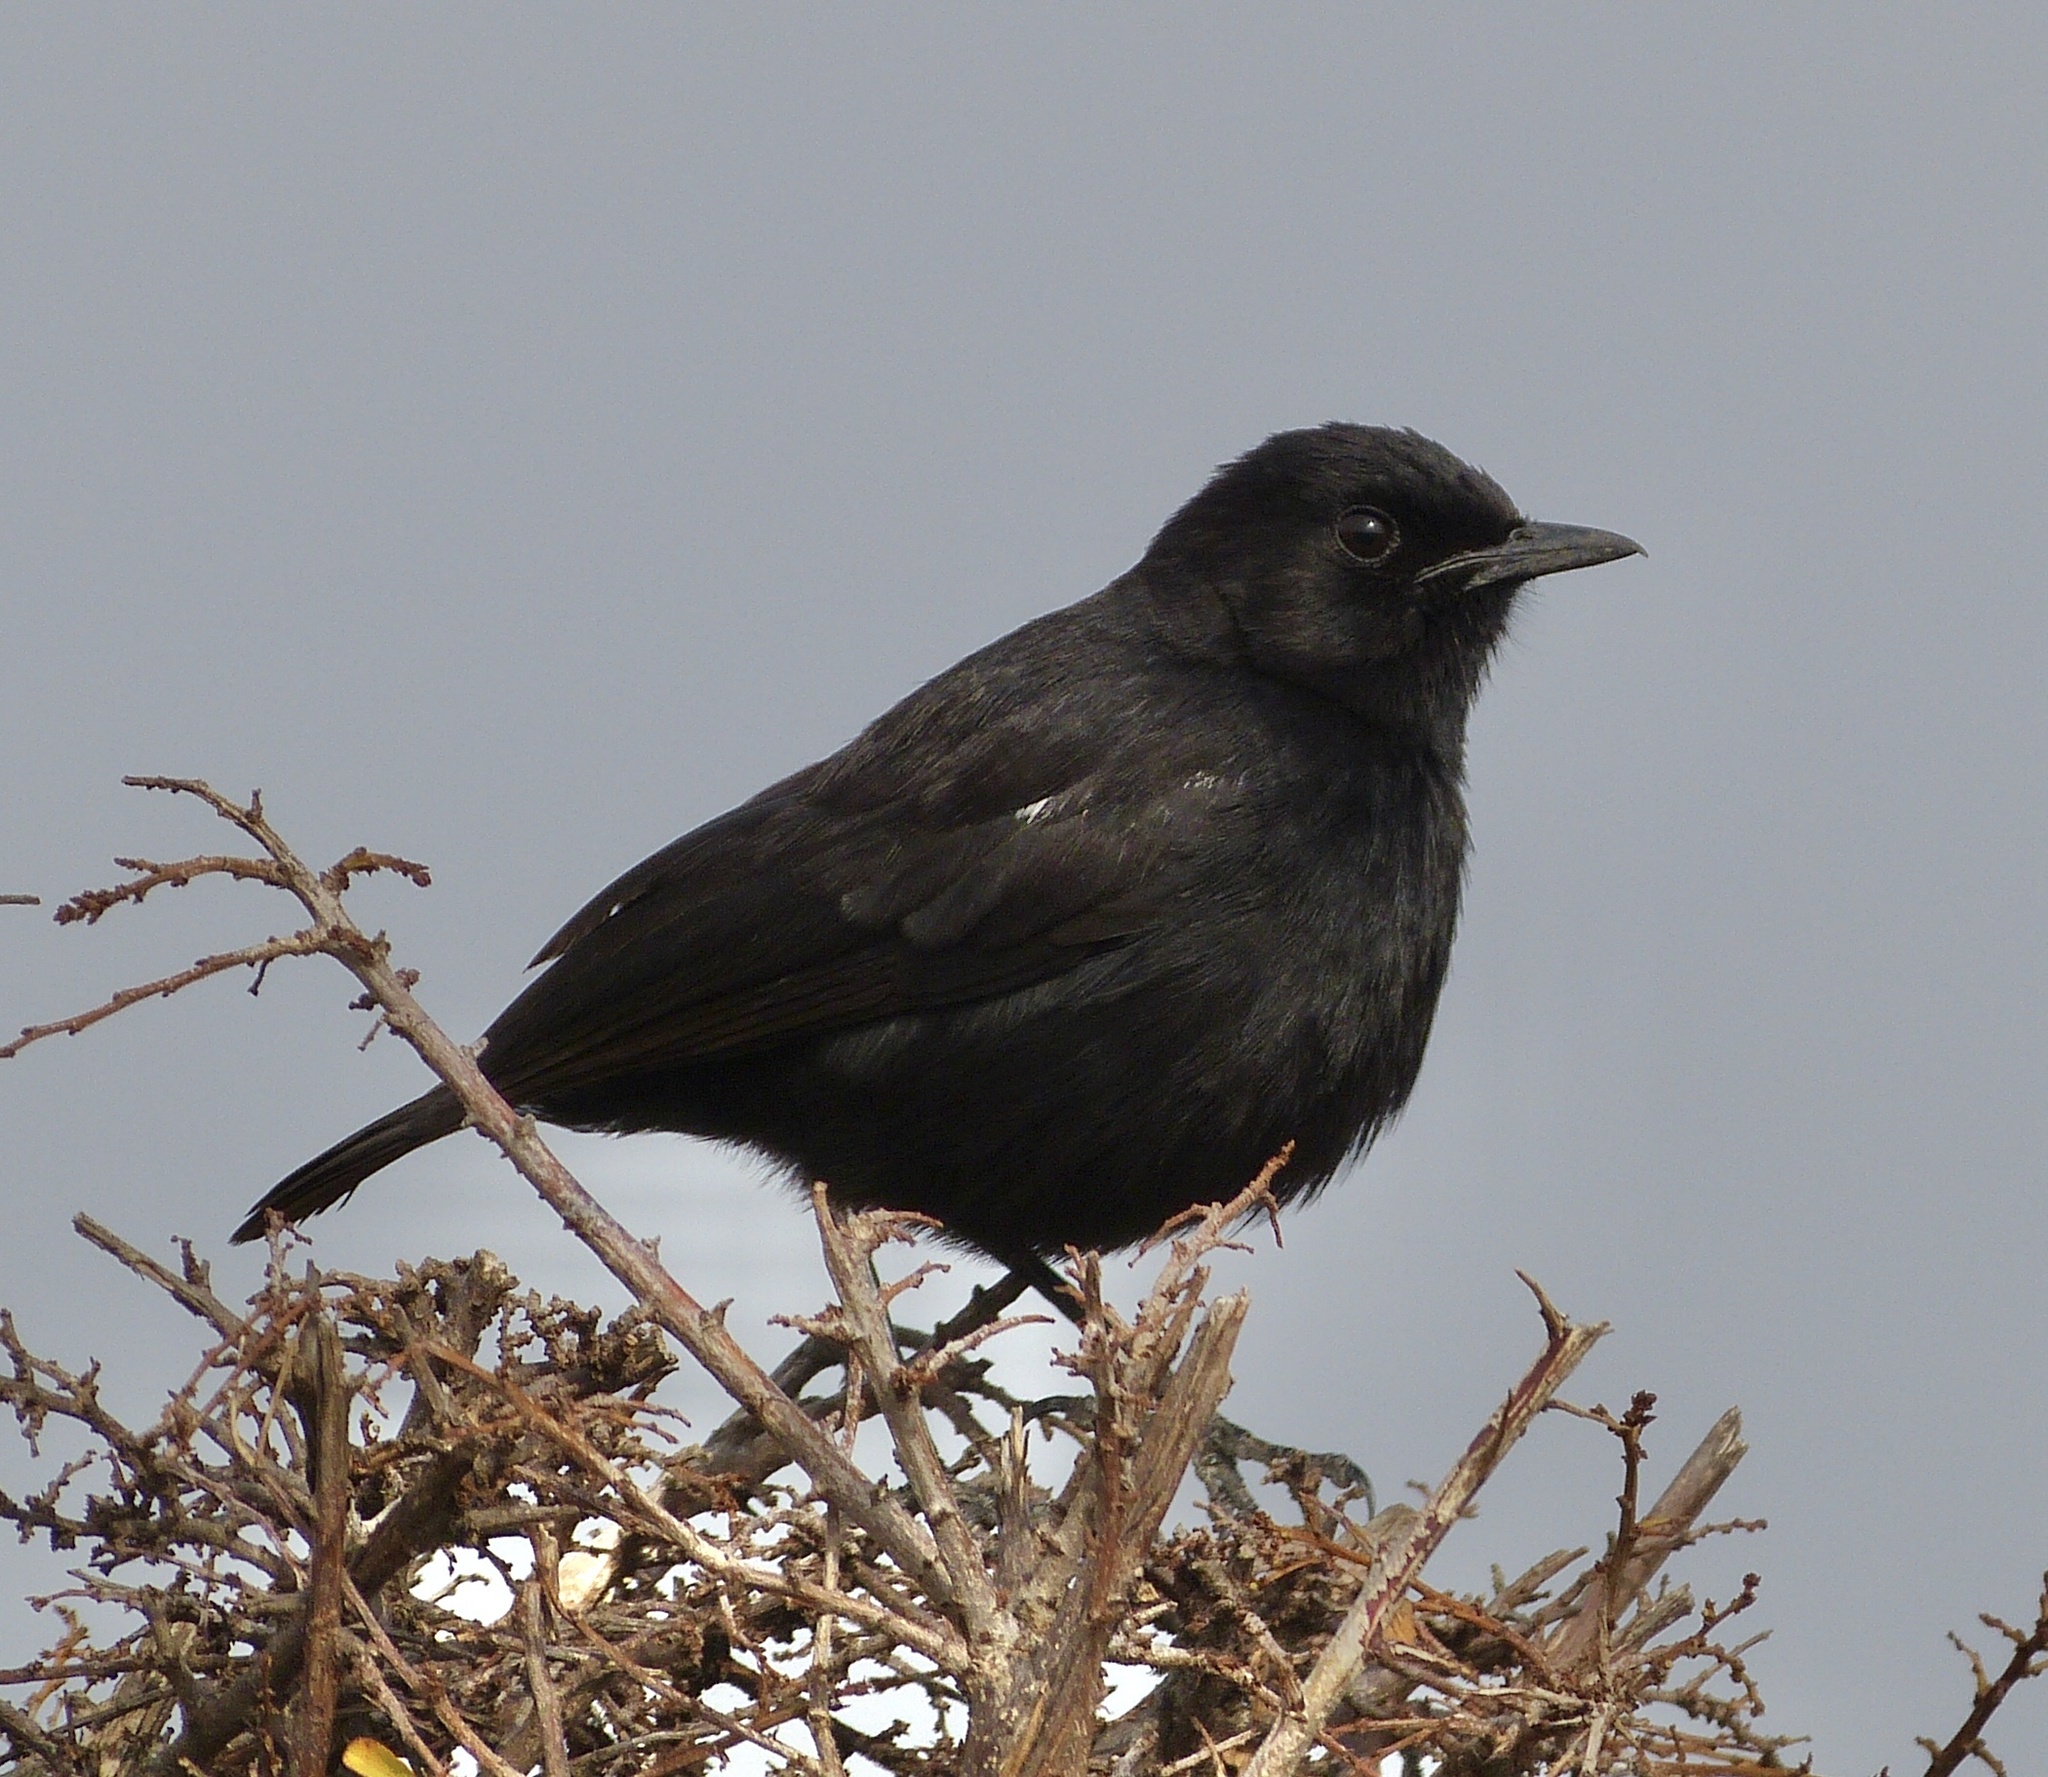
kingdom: Animalia
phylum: Chordata
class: Aves
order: Passeriformes
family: Muscicapidae
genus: Myrmecocichla
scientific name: Myrmecocichla nigra
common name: Sooty chat
